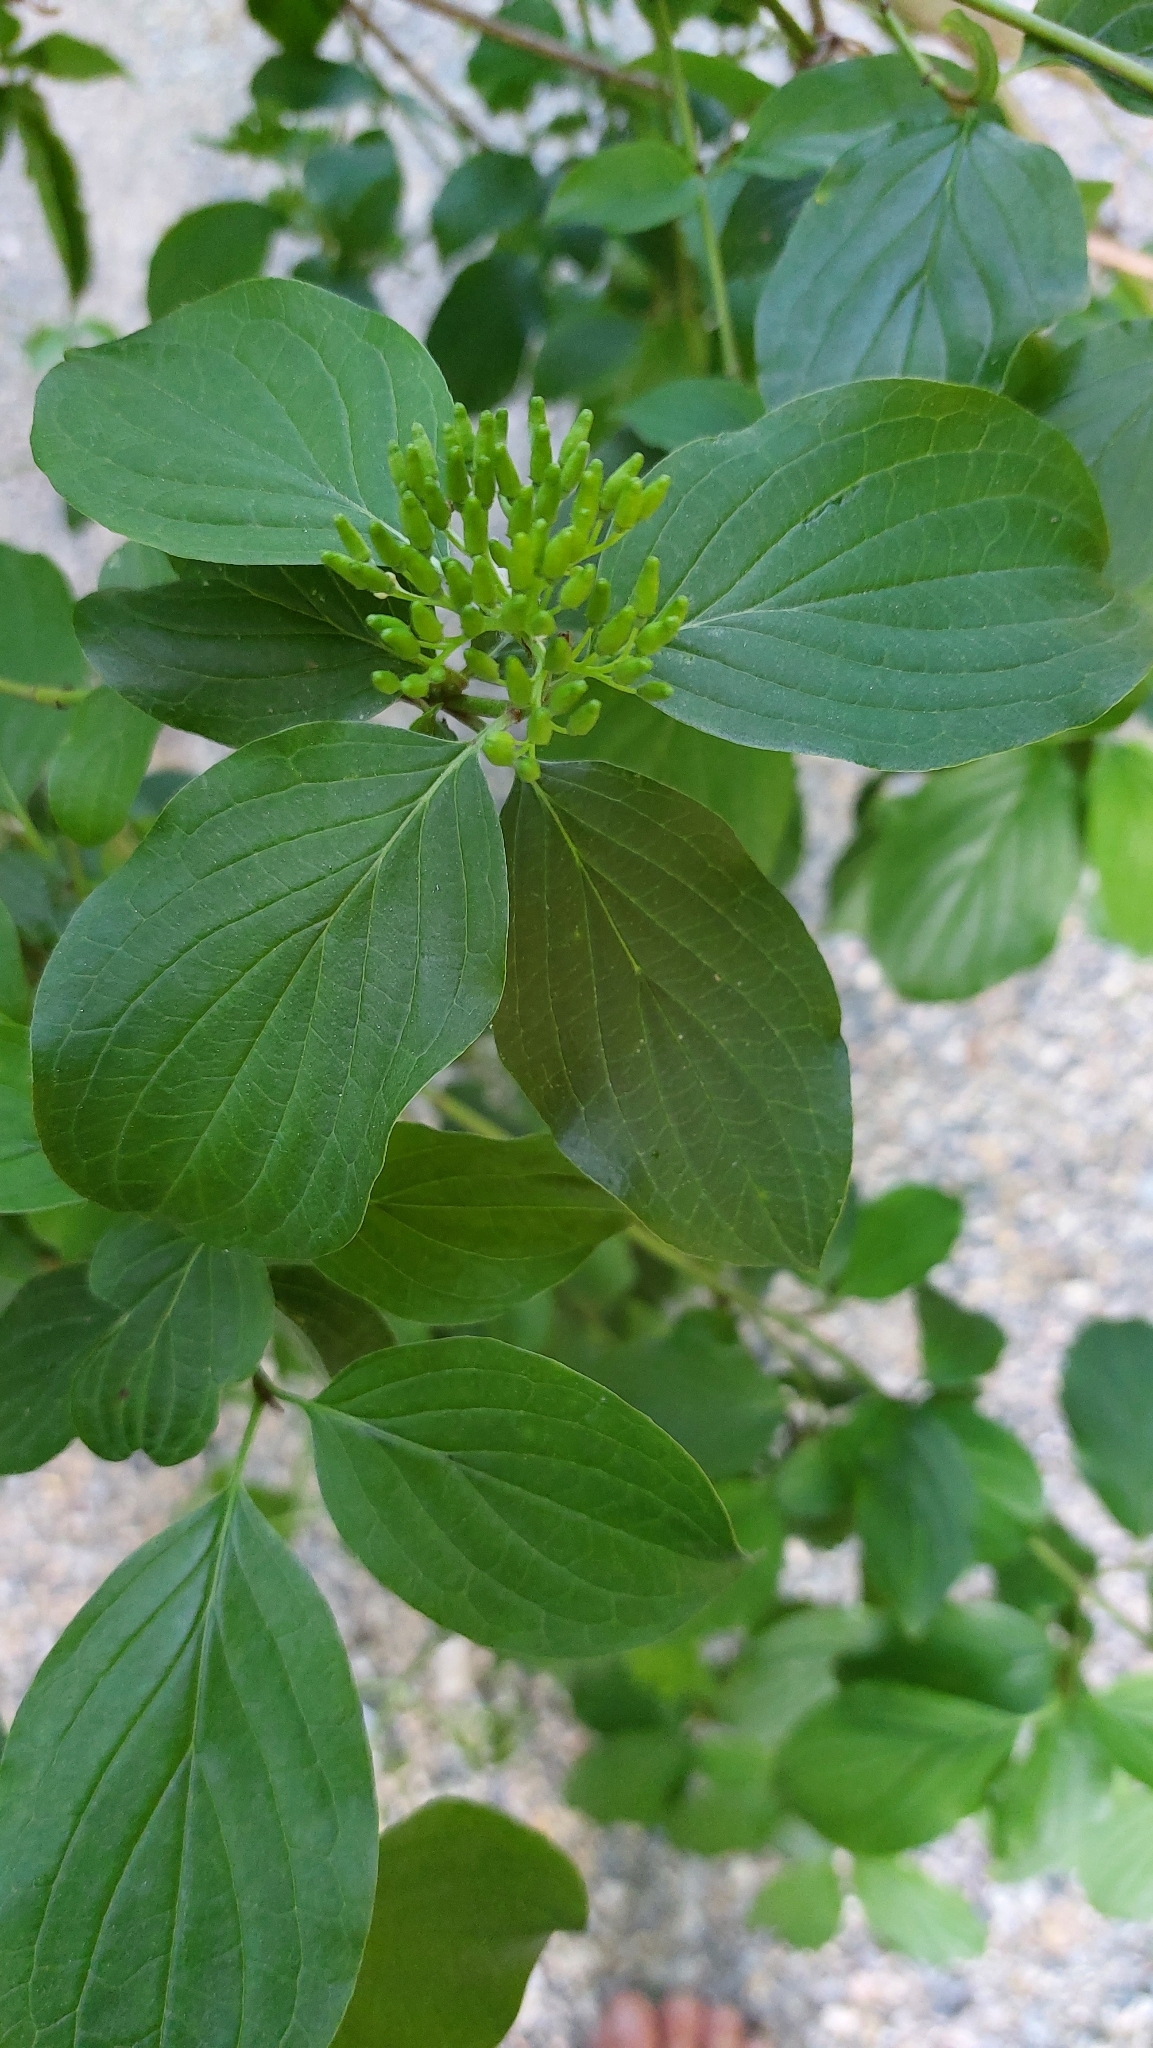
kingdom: Plantae
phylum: Tracheophyta
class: Magnoliopsida
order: Cornales
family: Cornaceae
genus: Cornus
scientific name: Cornus sanguinea
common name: Dogwood
